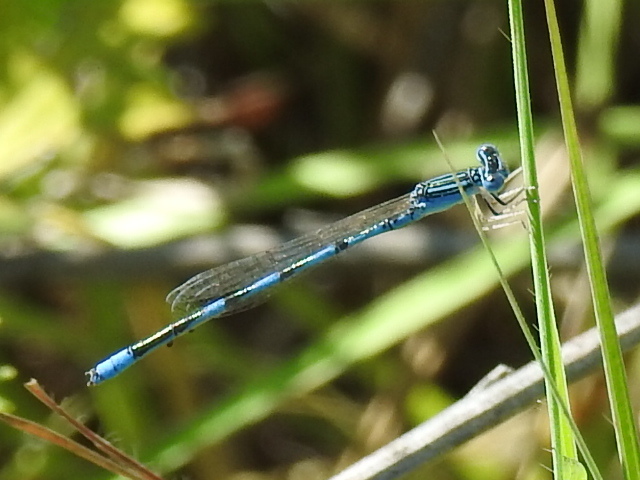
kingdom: Animalia
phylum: Arthropoda
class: Insecta
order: Odonata
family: Coenagrionidae
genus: Enallagma
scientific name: Enallagma basidens
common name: Double-striped bluet
